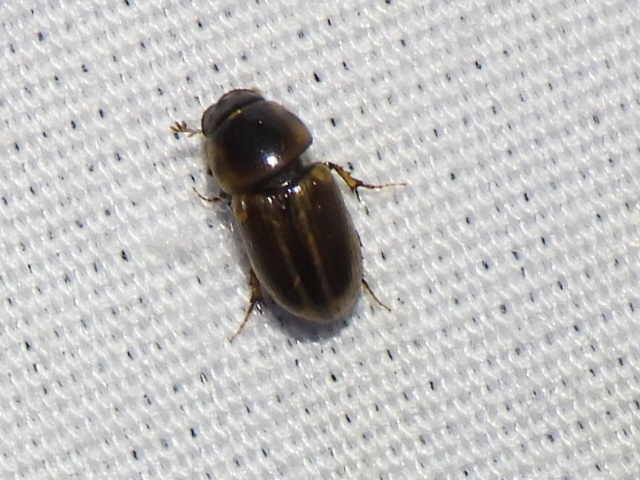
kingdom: Animalia
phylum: Arthropoda
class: Insecta
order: Coleoptera
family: Scarabaeidae
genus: Labarrus
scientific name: Labarrus lividus
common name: Scarab beetle
